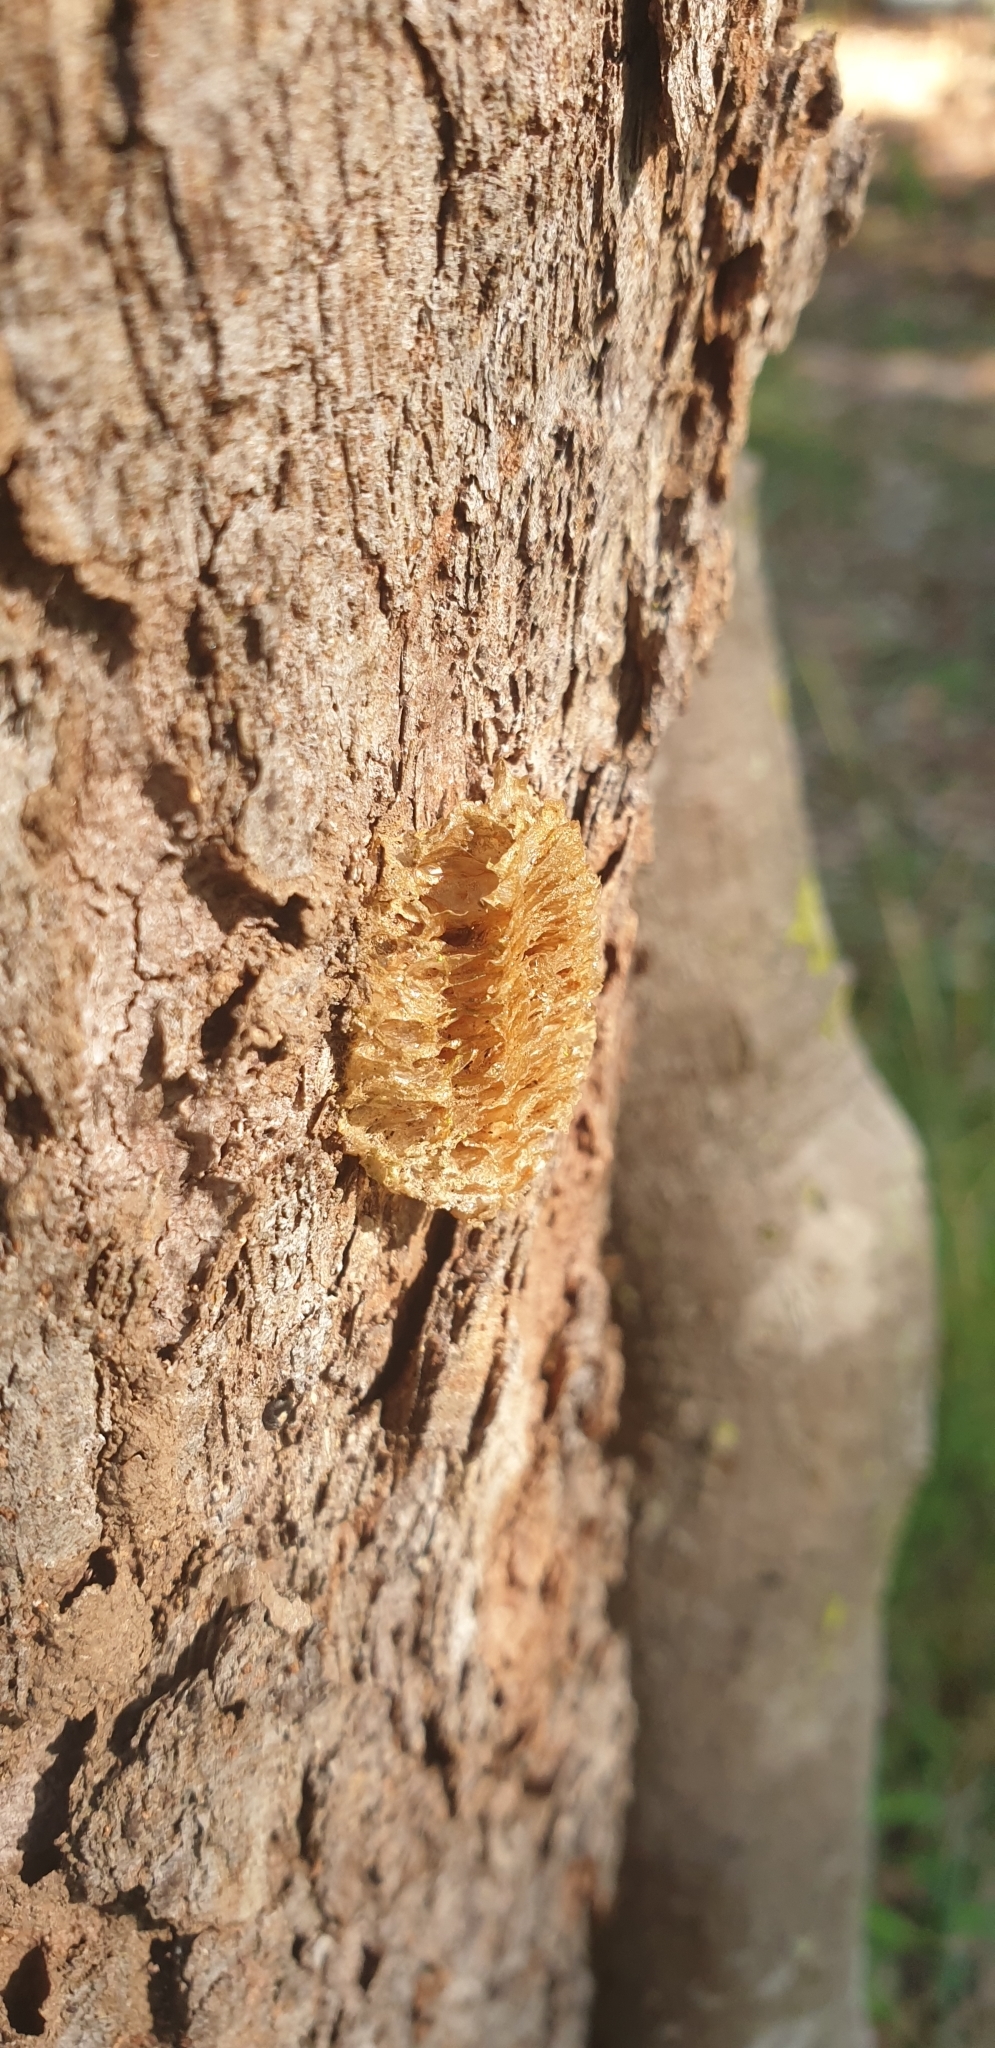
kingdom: Animalia
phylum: Arthropoda
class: Insecta
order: Mantodea
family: Mantidae
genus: Pseudomantis
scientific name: Pseudomantis albofimbriata
